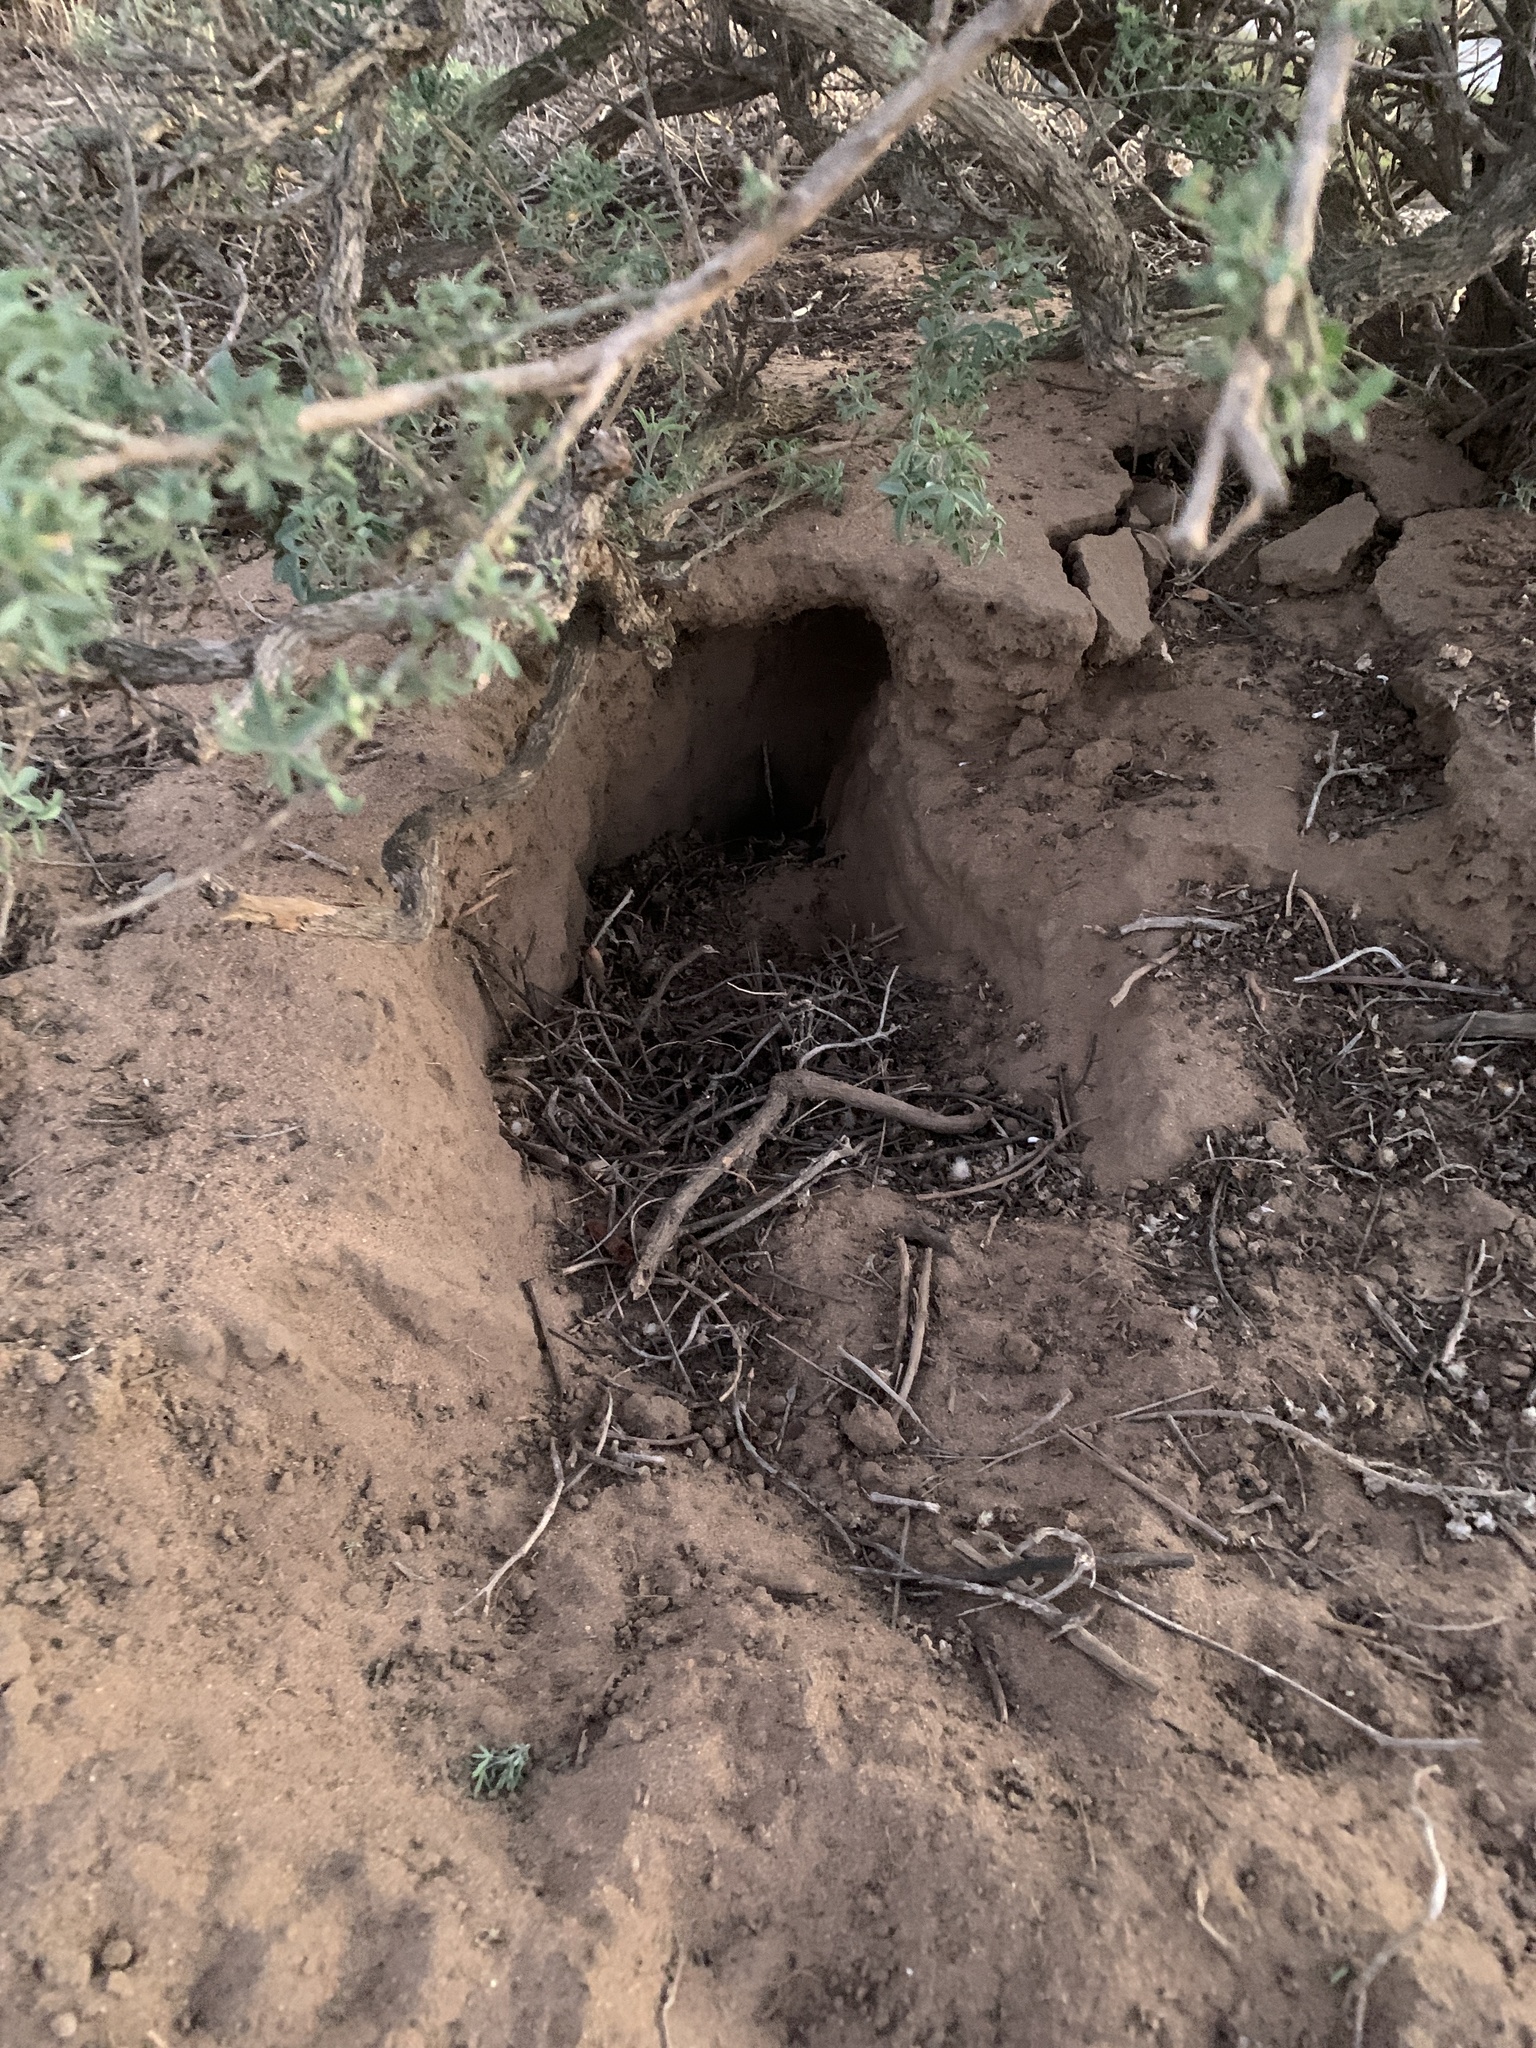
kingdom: Animalia
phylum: Chordata
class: Mammalia
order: Rodentia
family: Sciuridae
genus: Otospermophilus
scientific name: Otospermophilus beecheyi
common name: California ground squirrel
